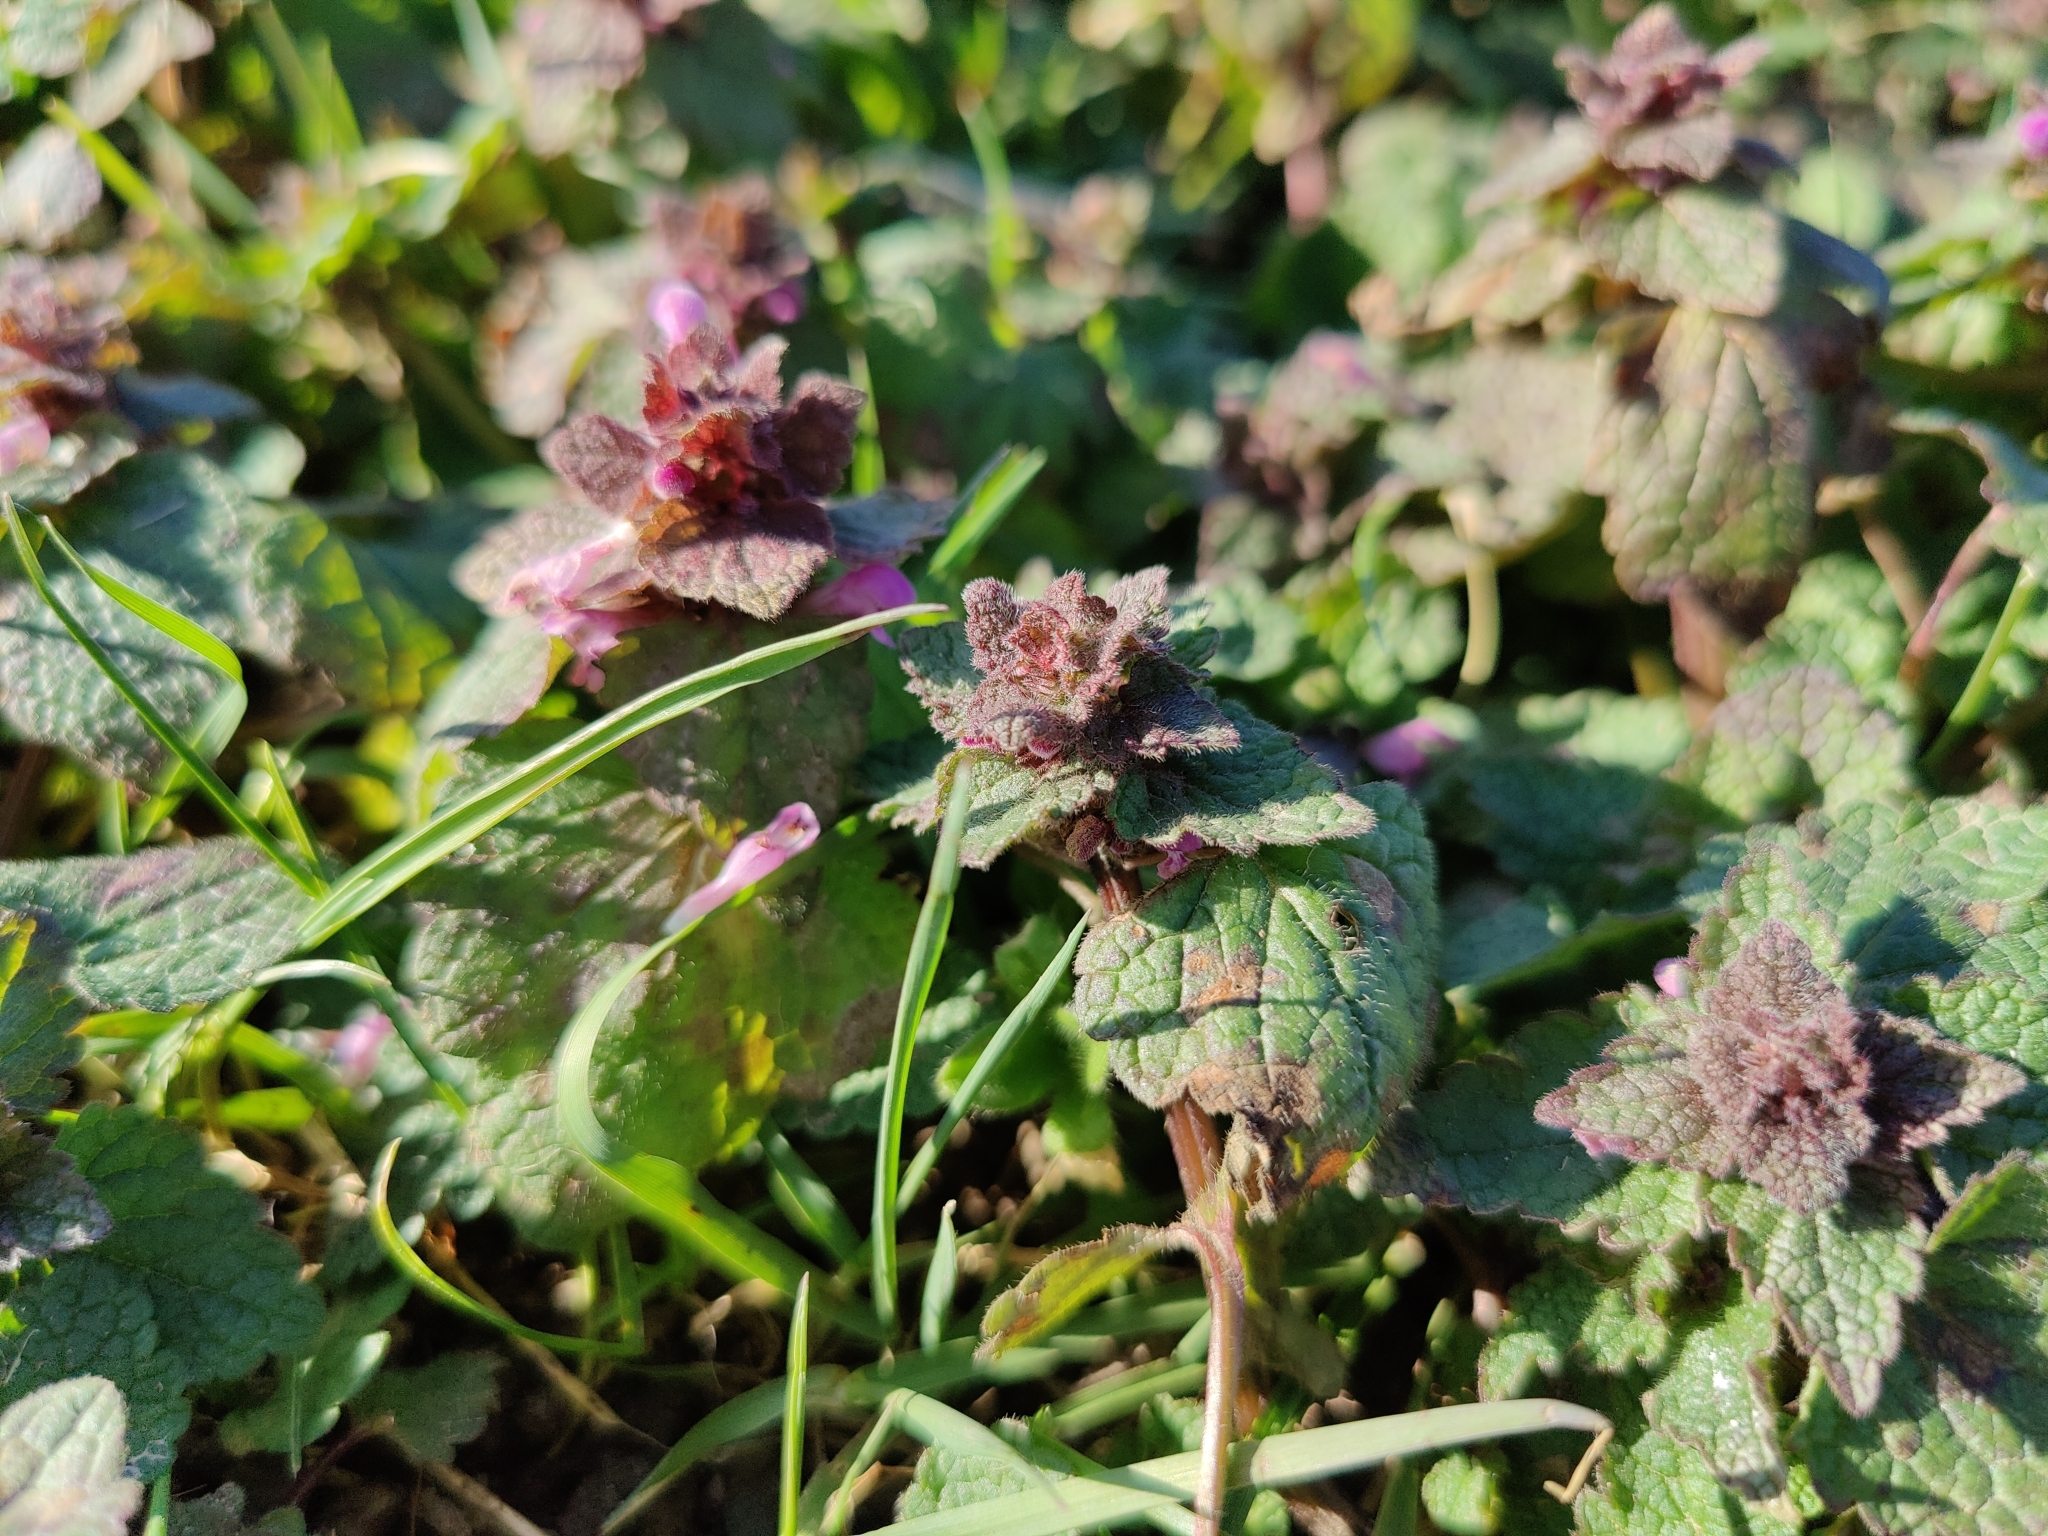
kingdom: Plantae
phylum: Tracheophyta
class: Magnoliopsida
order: Lamiales
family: Lamiaceae
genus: Lamium
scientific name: Lamium purpureum
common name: Red dead-nettle
